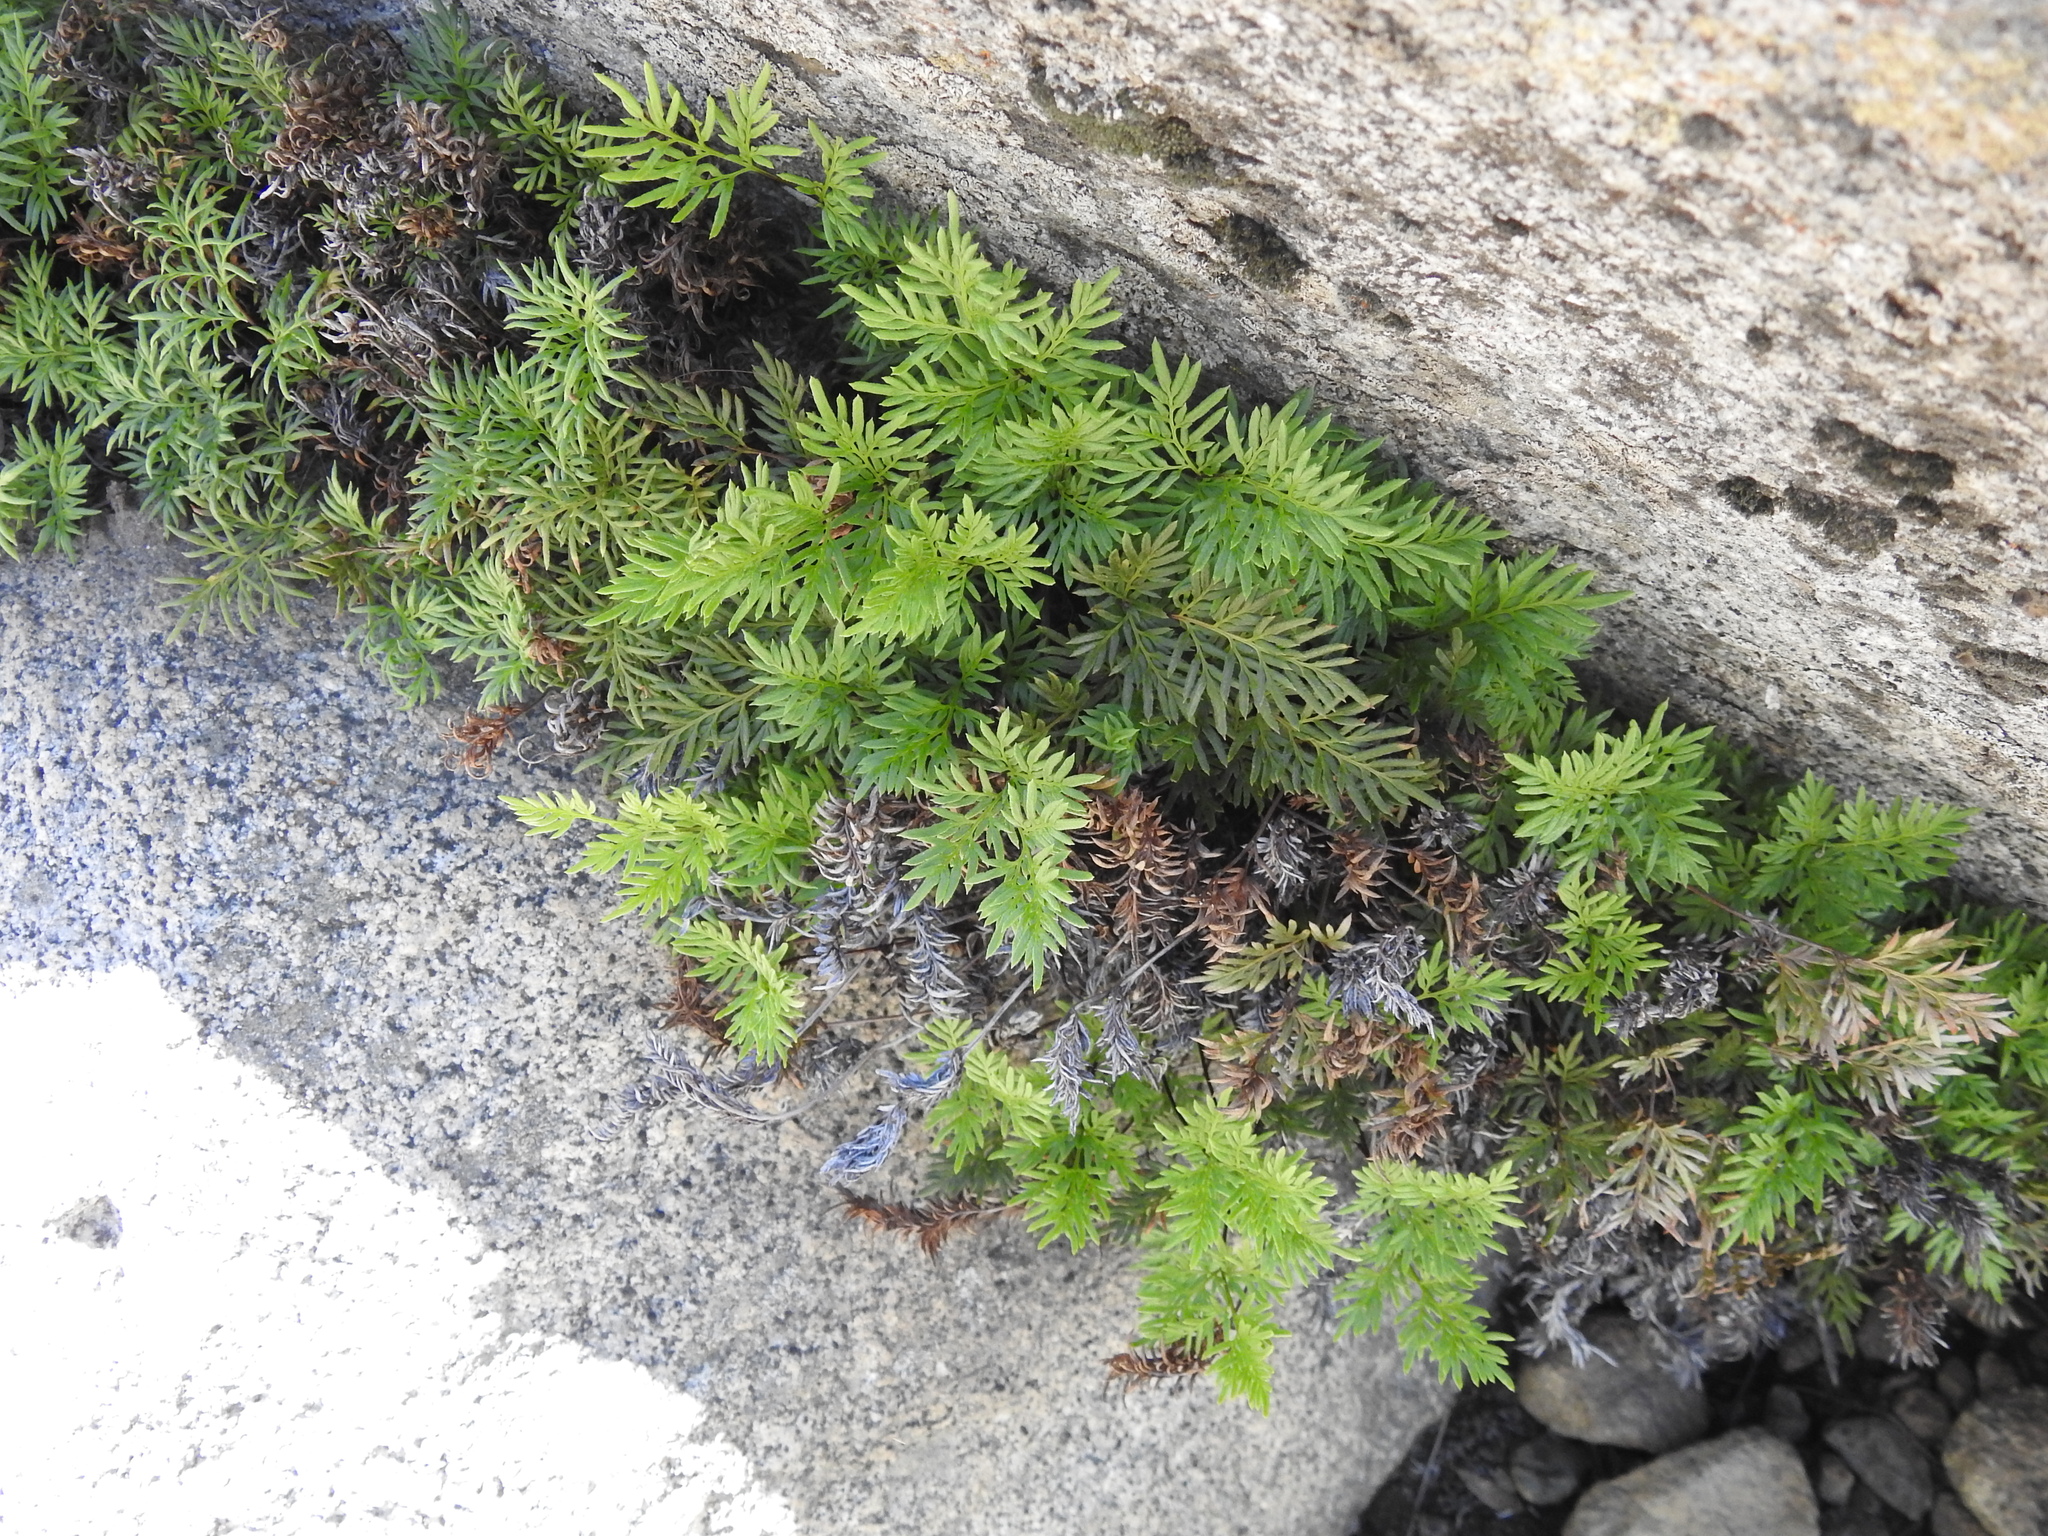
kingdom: Plantae
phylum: Tracheophyta
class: Polypodiopsida
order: Polypodiales
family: Pteridaceae
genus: Aspidotis
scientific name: Aspidotis densa
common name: Indian's dream
